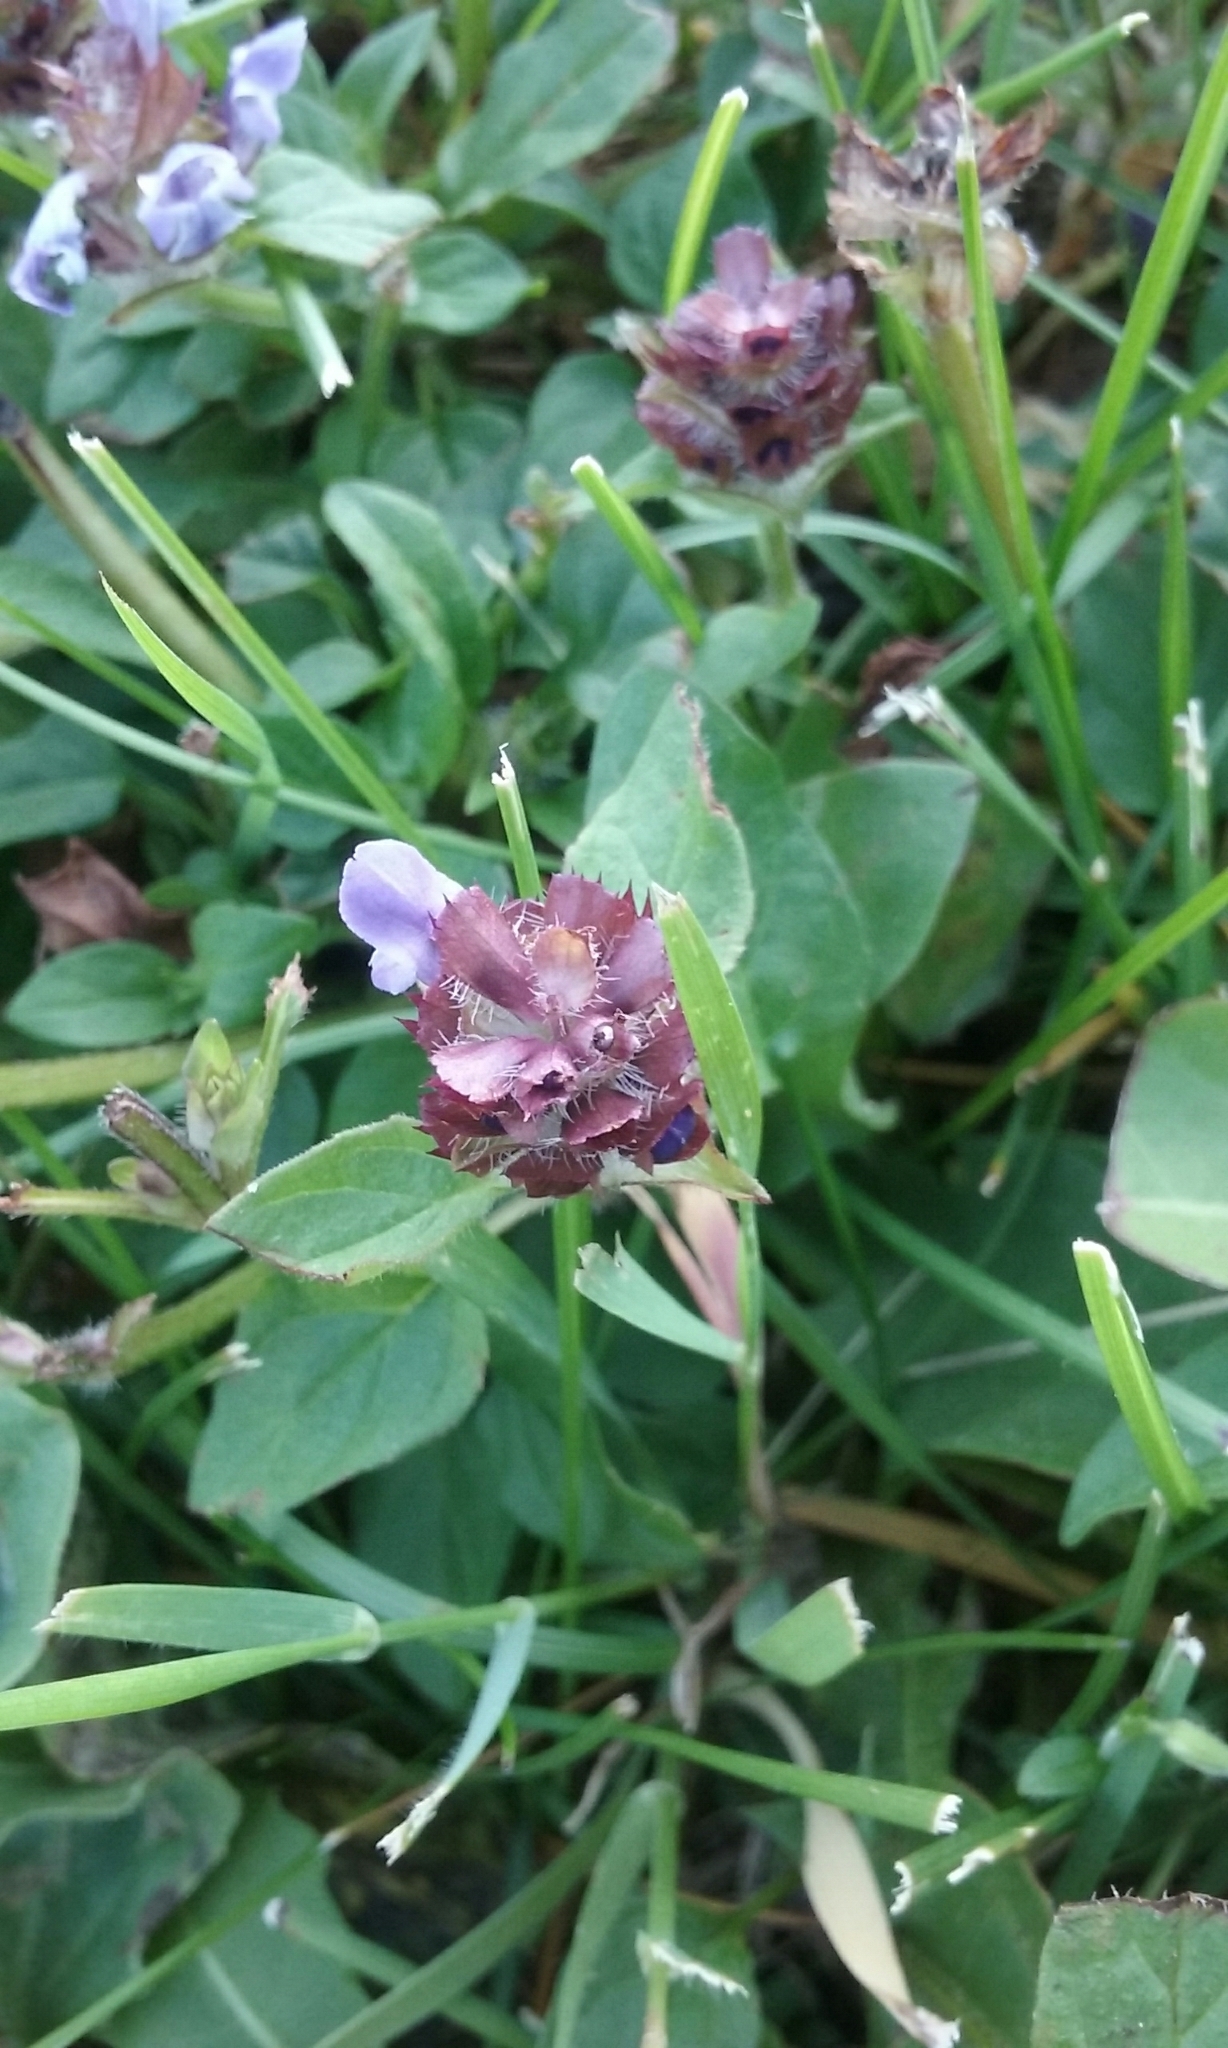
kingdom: Plantae
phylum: Tracheophyta
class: Magnoliopsida
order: Lamiales
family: Lamiaceae
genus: Prunella
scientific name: Prunella vulgaris
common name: Heal-all
